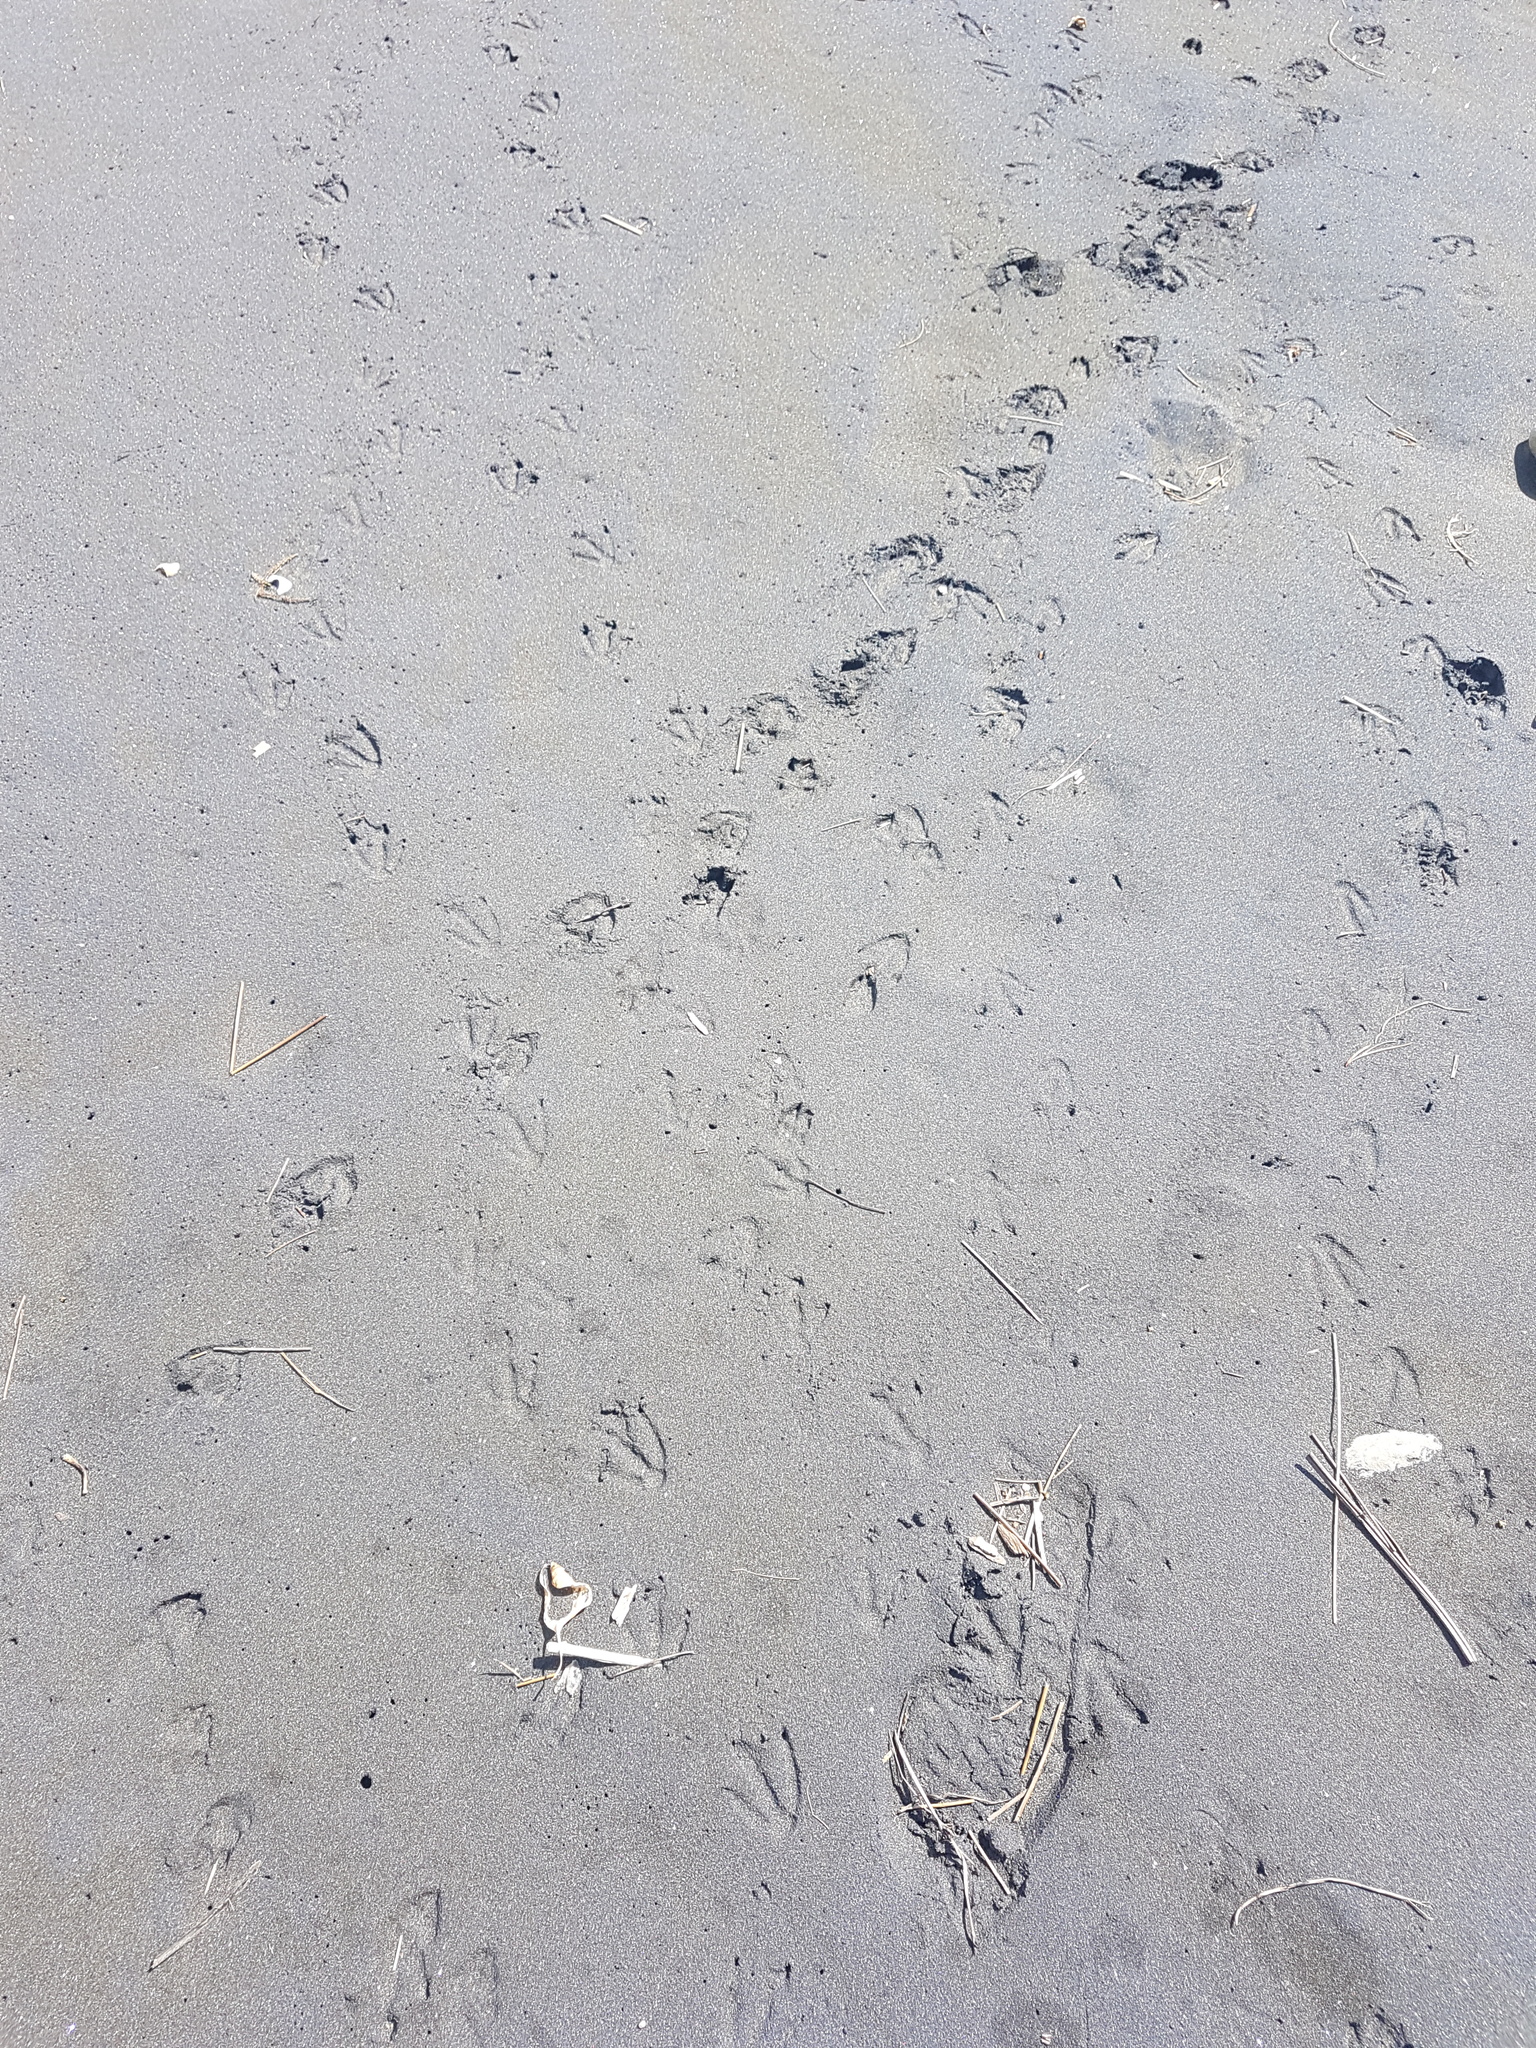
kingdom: Animalia
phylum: Chordata
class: Aves
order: Sphenisciformes
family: Spheniscidae
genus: Eudyptula
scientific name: Eudyptula minor
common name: Little penguin
